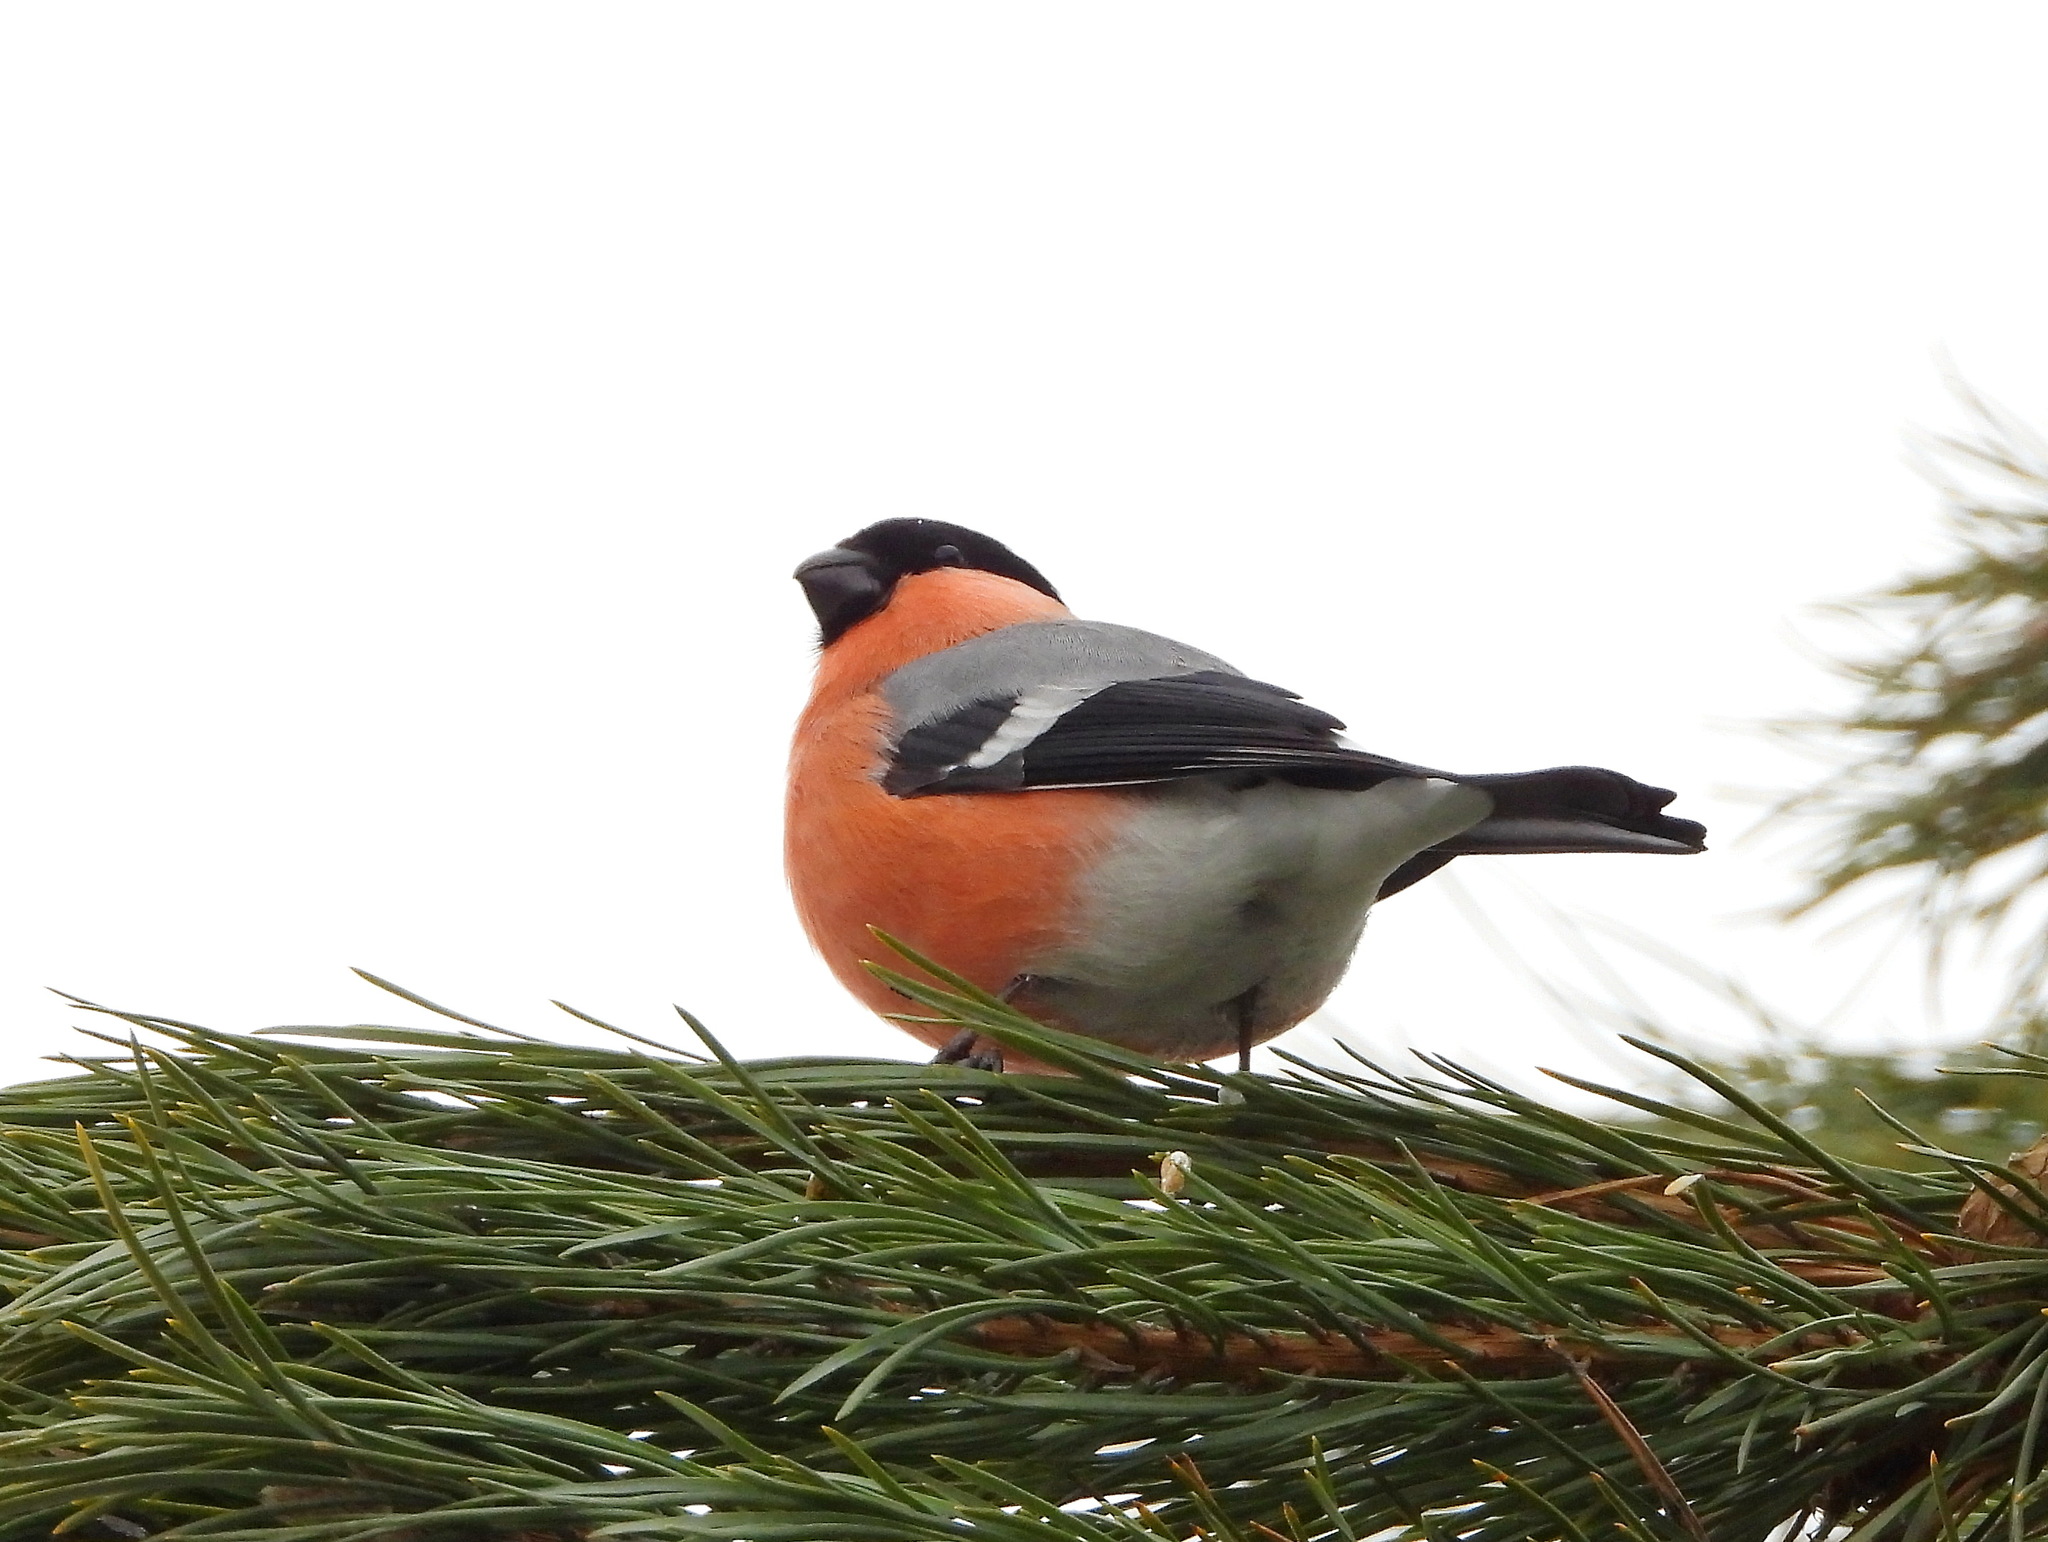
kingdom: Animalia
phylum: Chordata
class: Aves
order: Passeriformes
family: Fringillidae
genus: Pyrrhula
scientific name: Pyrrhula pyrrhula
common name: Eurasian bullfinch
